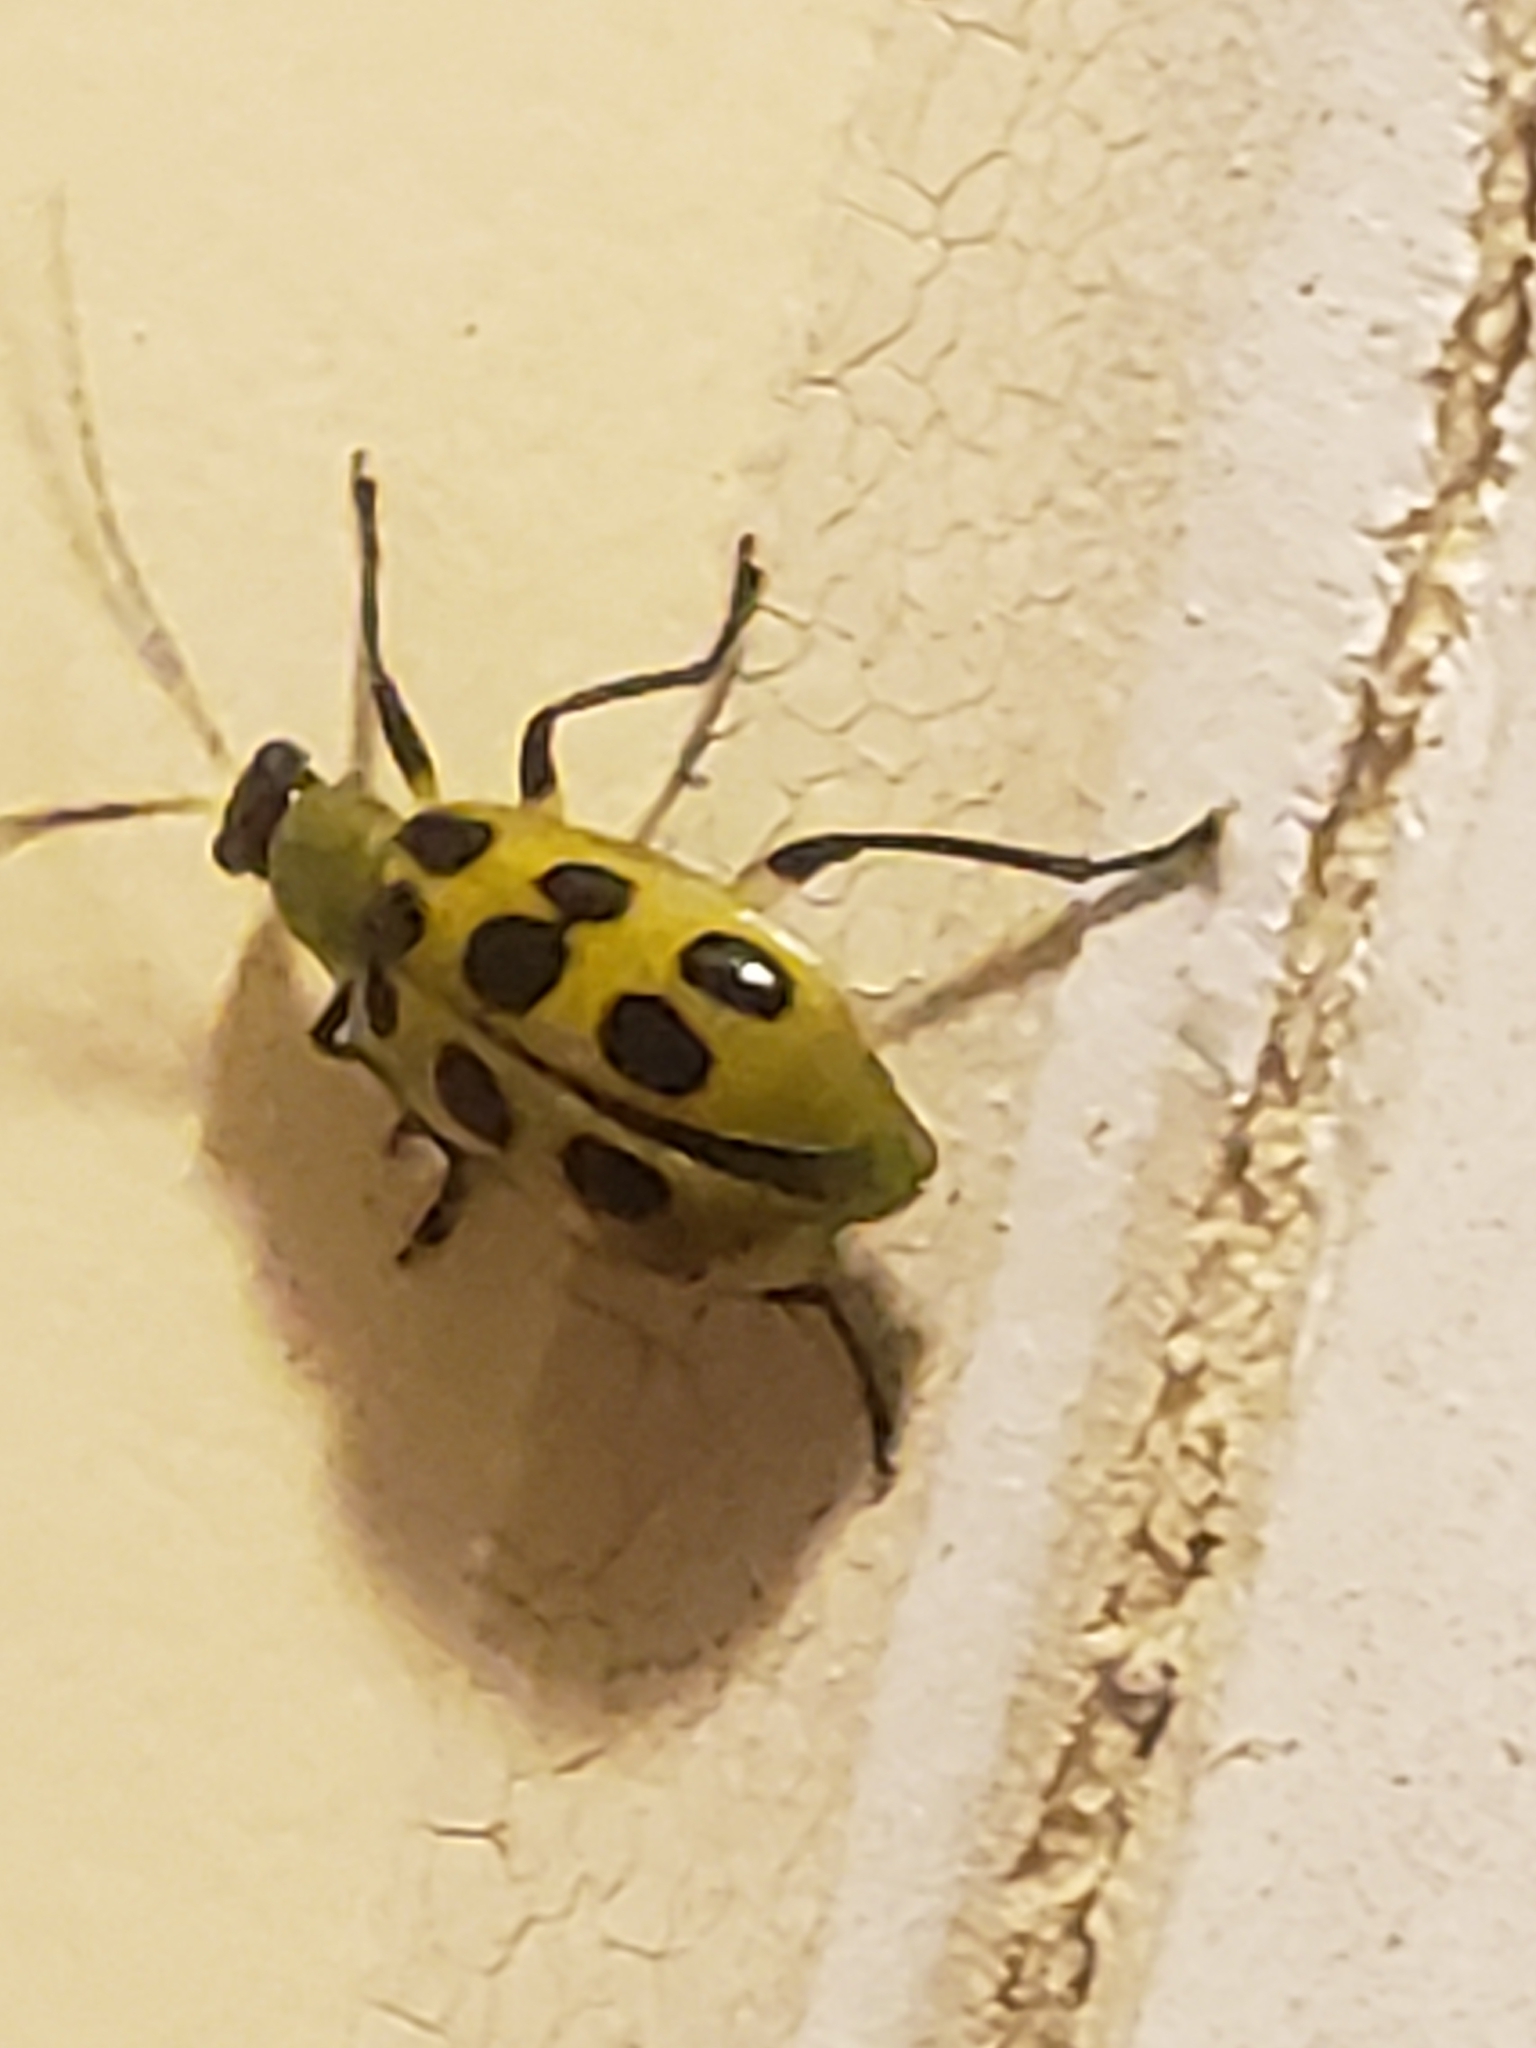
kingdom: Animalia
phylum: Arthropoda
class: Insecta
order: Coleoptera
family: Chrysomelidae
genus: Diabrotica
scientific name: Diabrotica undecimpunctata
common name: Spotted cucumber beetle
